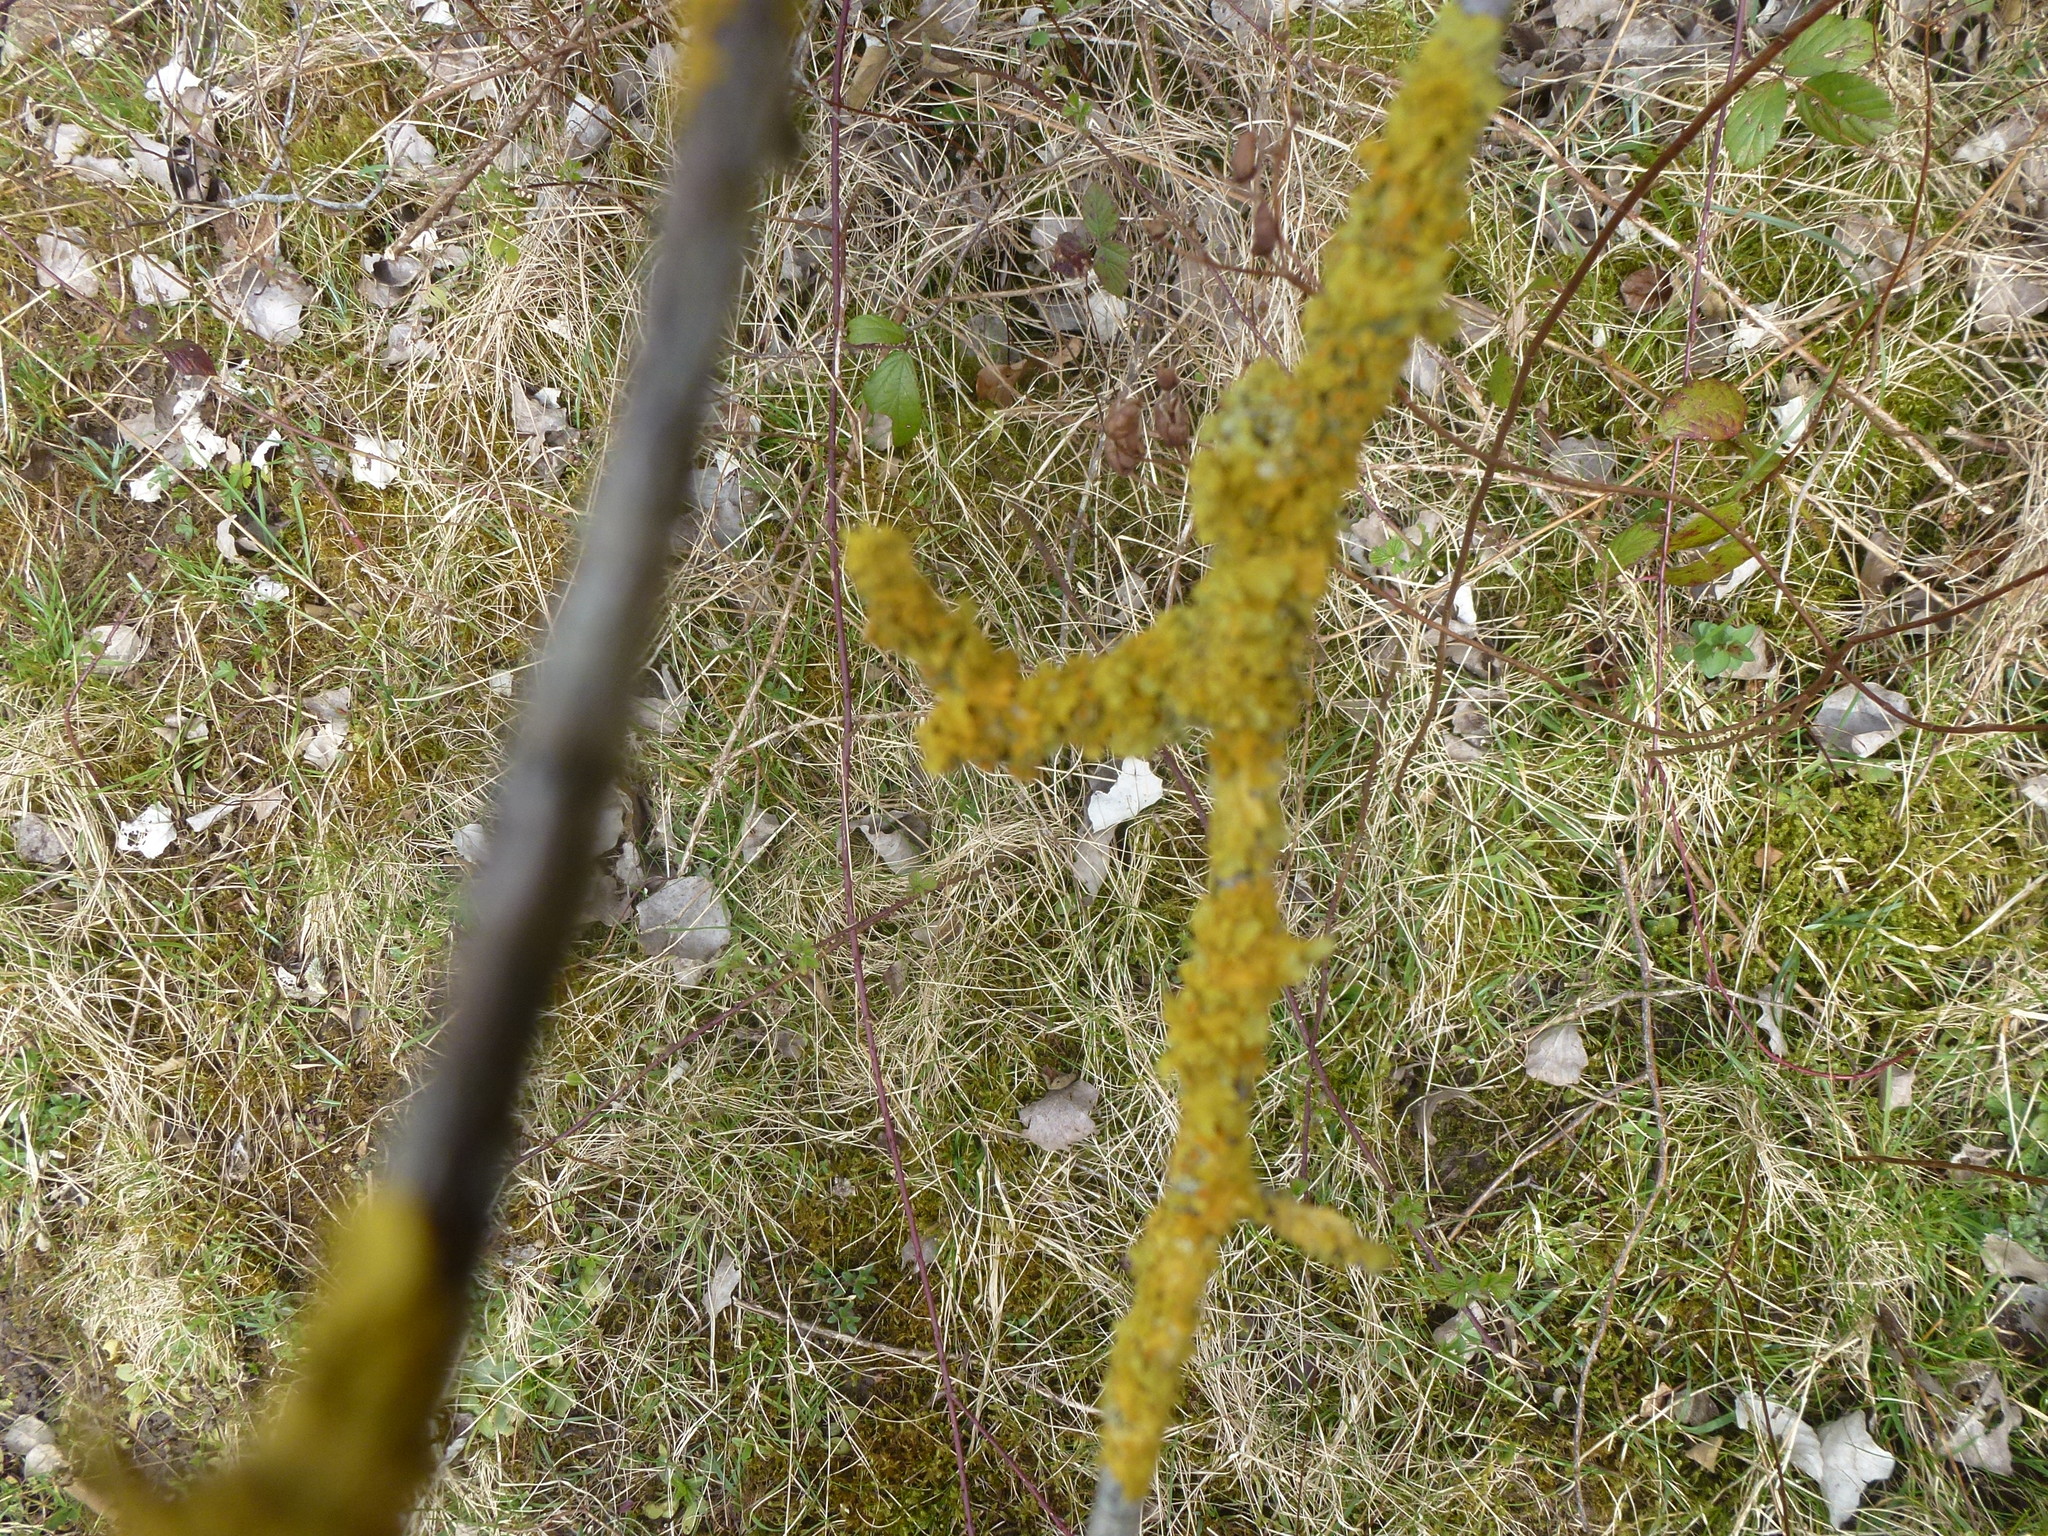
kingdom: Fungi
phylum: Ascomycota
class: Lecanoromycetes
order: Teloschistales
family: Teloschistaceae
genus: Xanthoria
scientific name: Xanthoria parietina
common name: Common orange lichen
